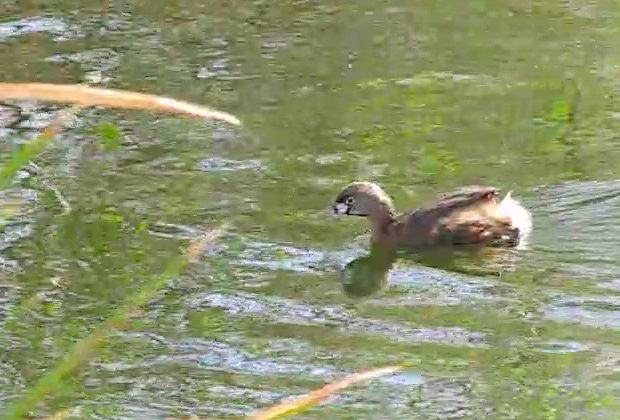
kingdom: Animalia
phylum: Chordata
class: Aves
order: Podicipediformes
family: Podicipedidae
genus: Podilymbus
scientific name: Podilymbus podiceps
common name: Pied-billed grebe
